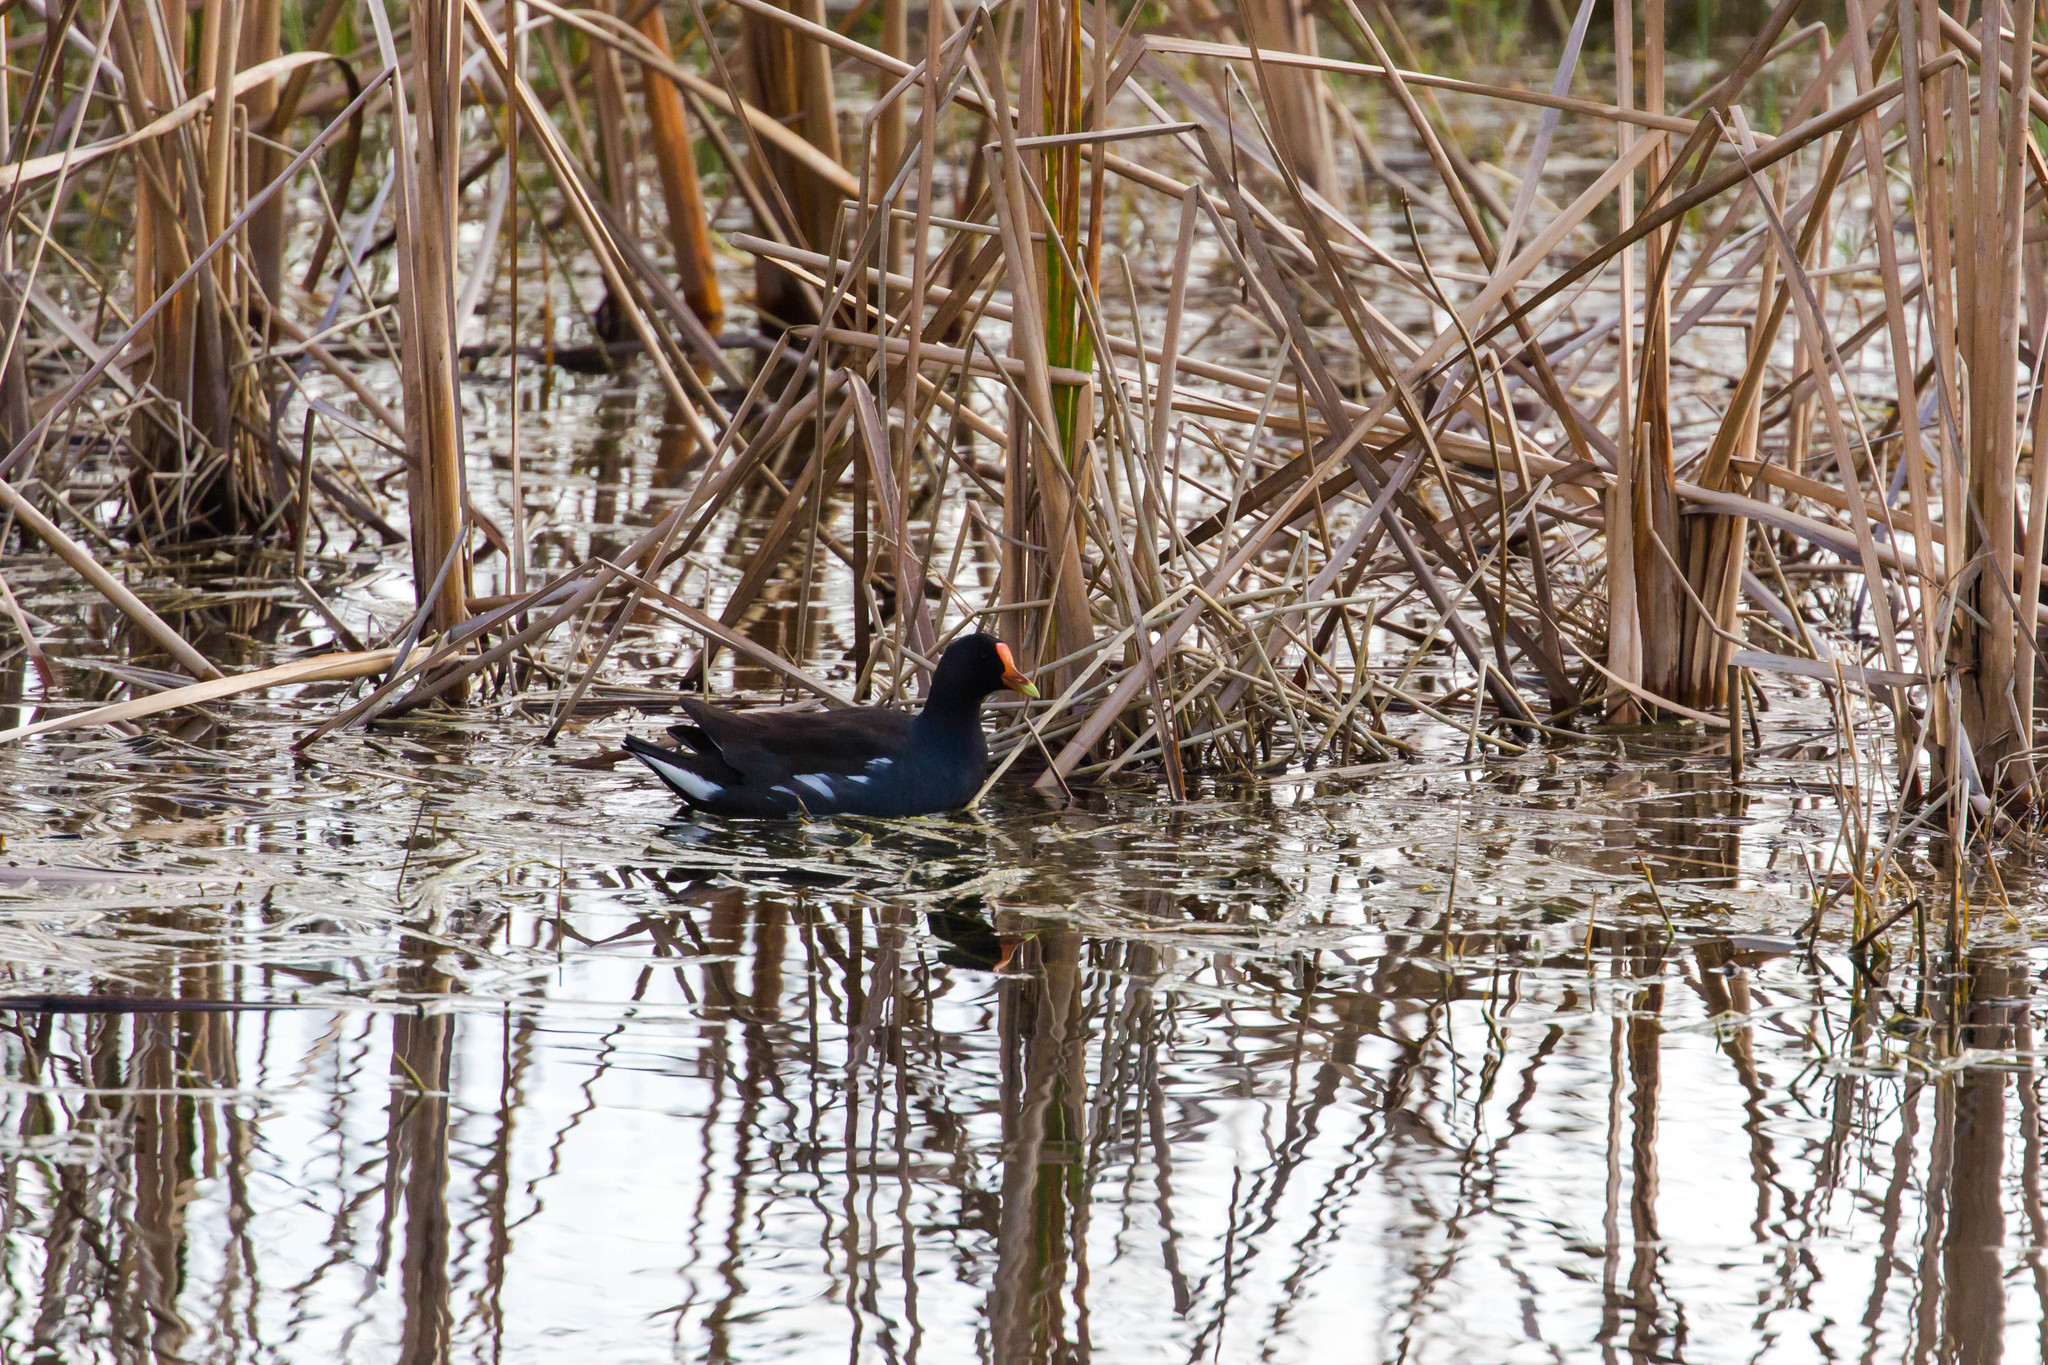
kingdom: Animalia
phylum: Chordata
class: Aves
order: Gruiformes
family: Rallidae
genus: Gallinula
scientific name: Gallinula chloropus
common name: Common moorhen
